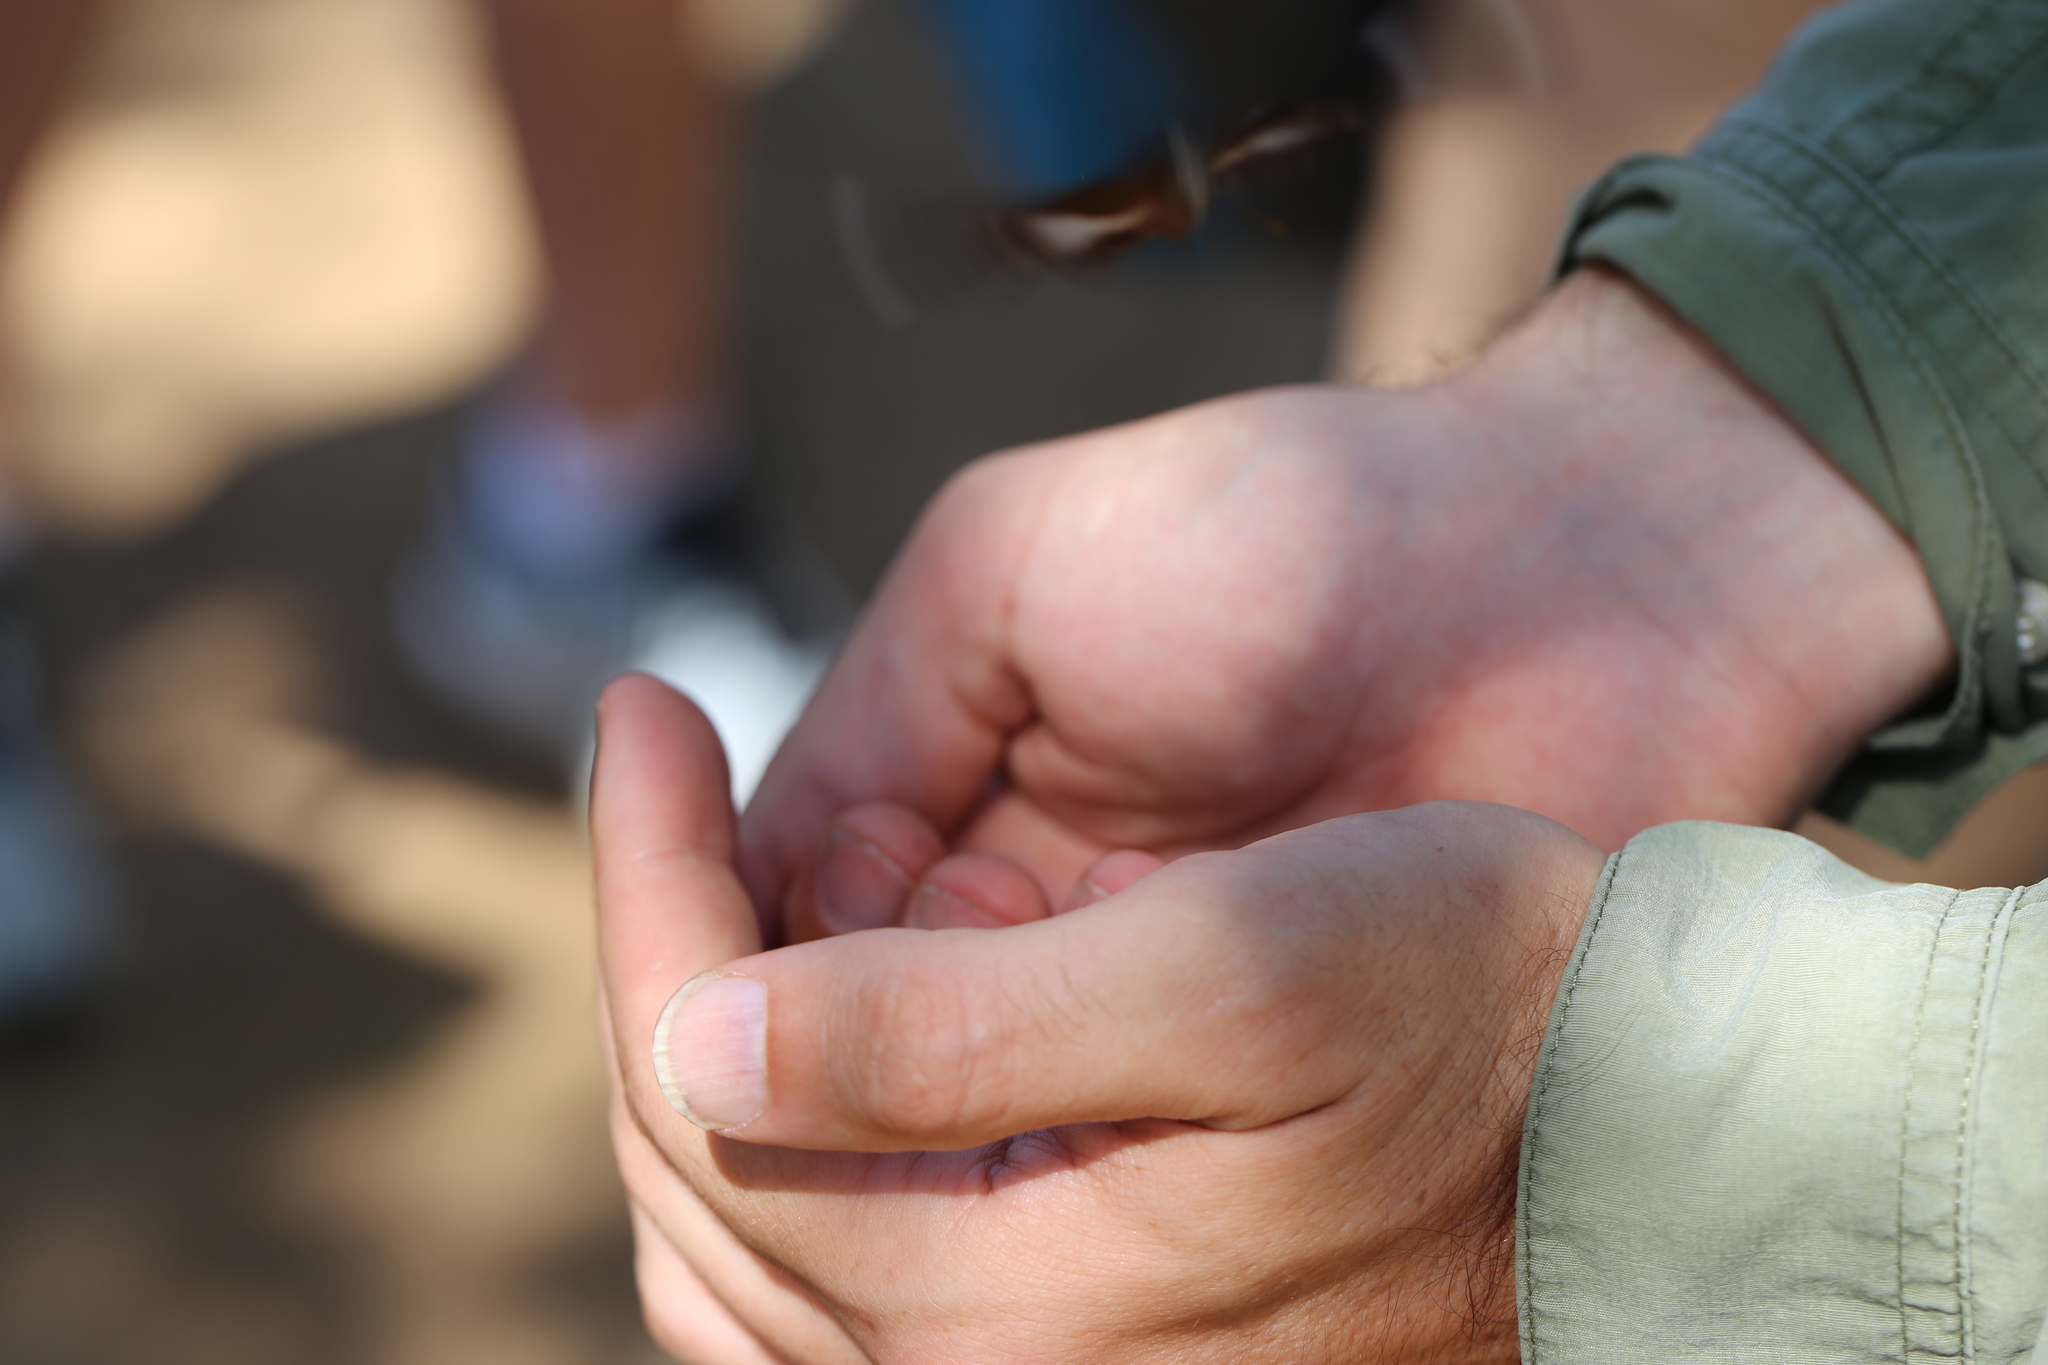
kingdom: Animalia
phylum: Arthropoda
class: Insecta
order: Lepidoptera
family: Nymphalidae
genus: Hypolimnas
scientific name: Hypolimnas bolina
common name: Great eggfly
